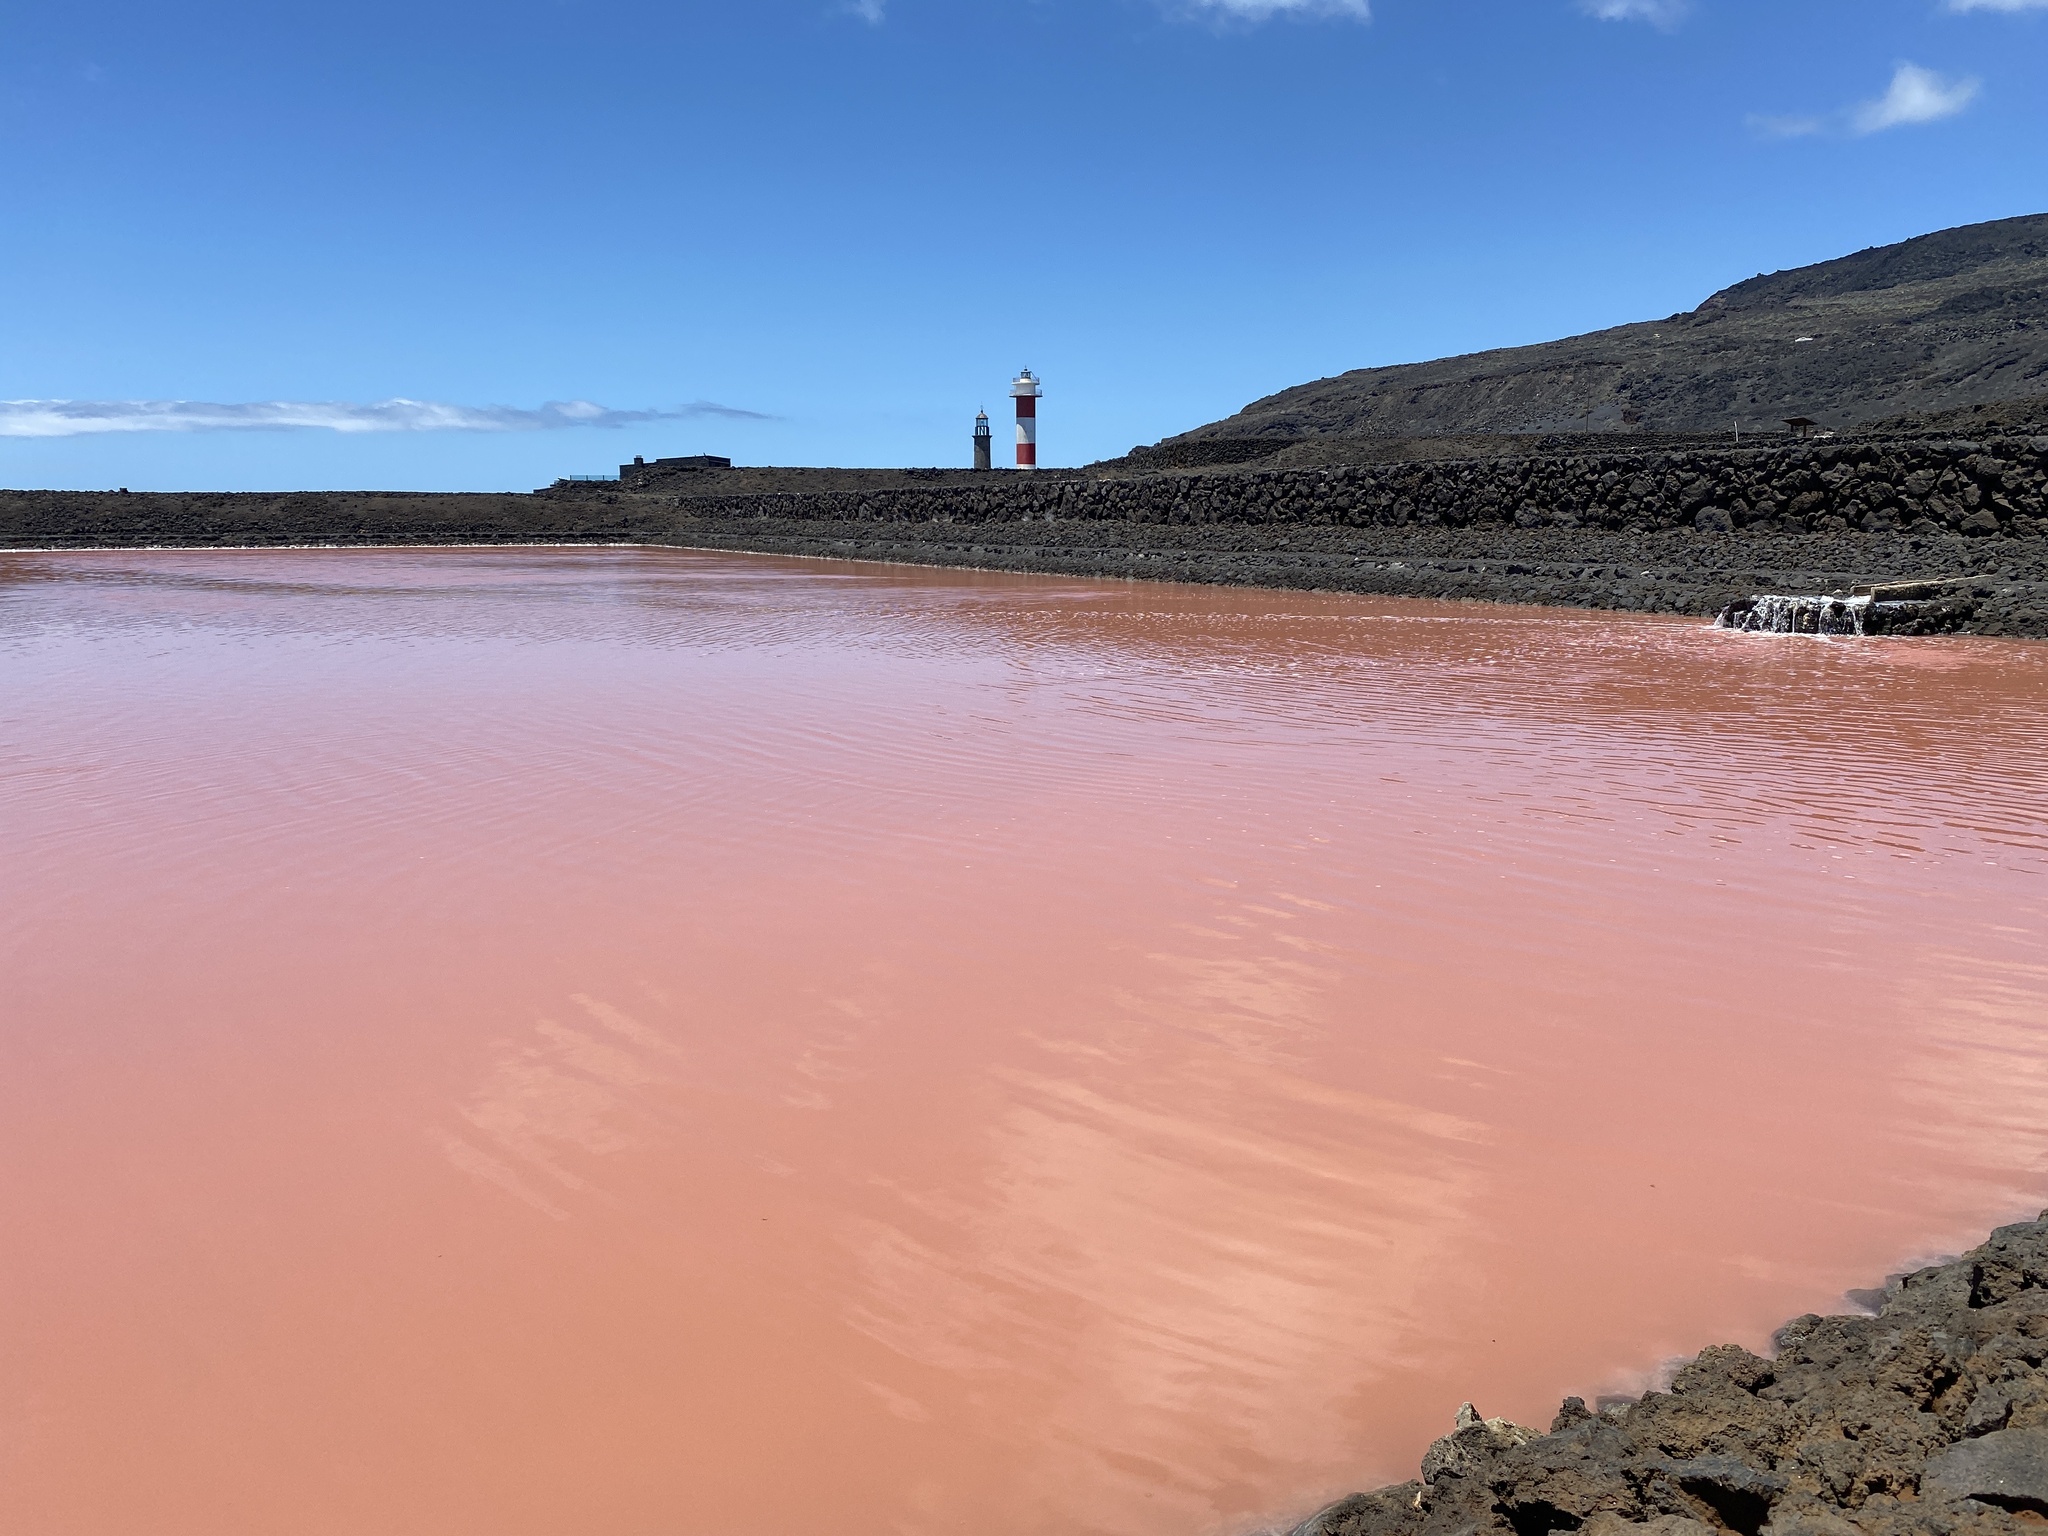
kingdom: Plantae
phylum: Chlorophyta
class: Chlorophyceae
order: Volvocales
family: Dunaliellaceae
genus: Dunaliella
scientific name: Dunaliella salina
